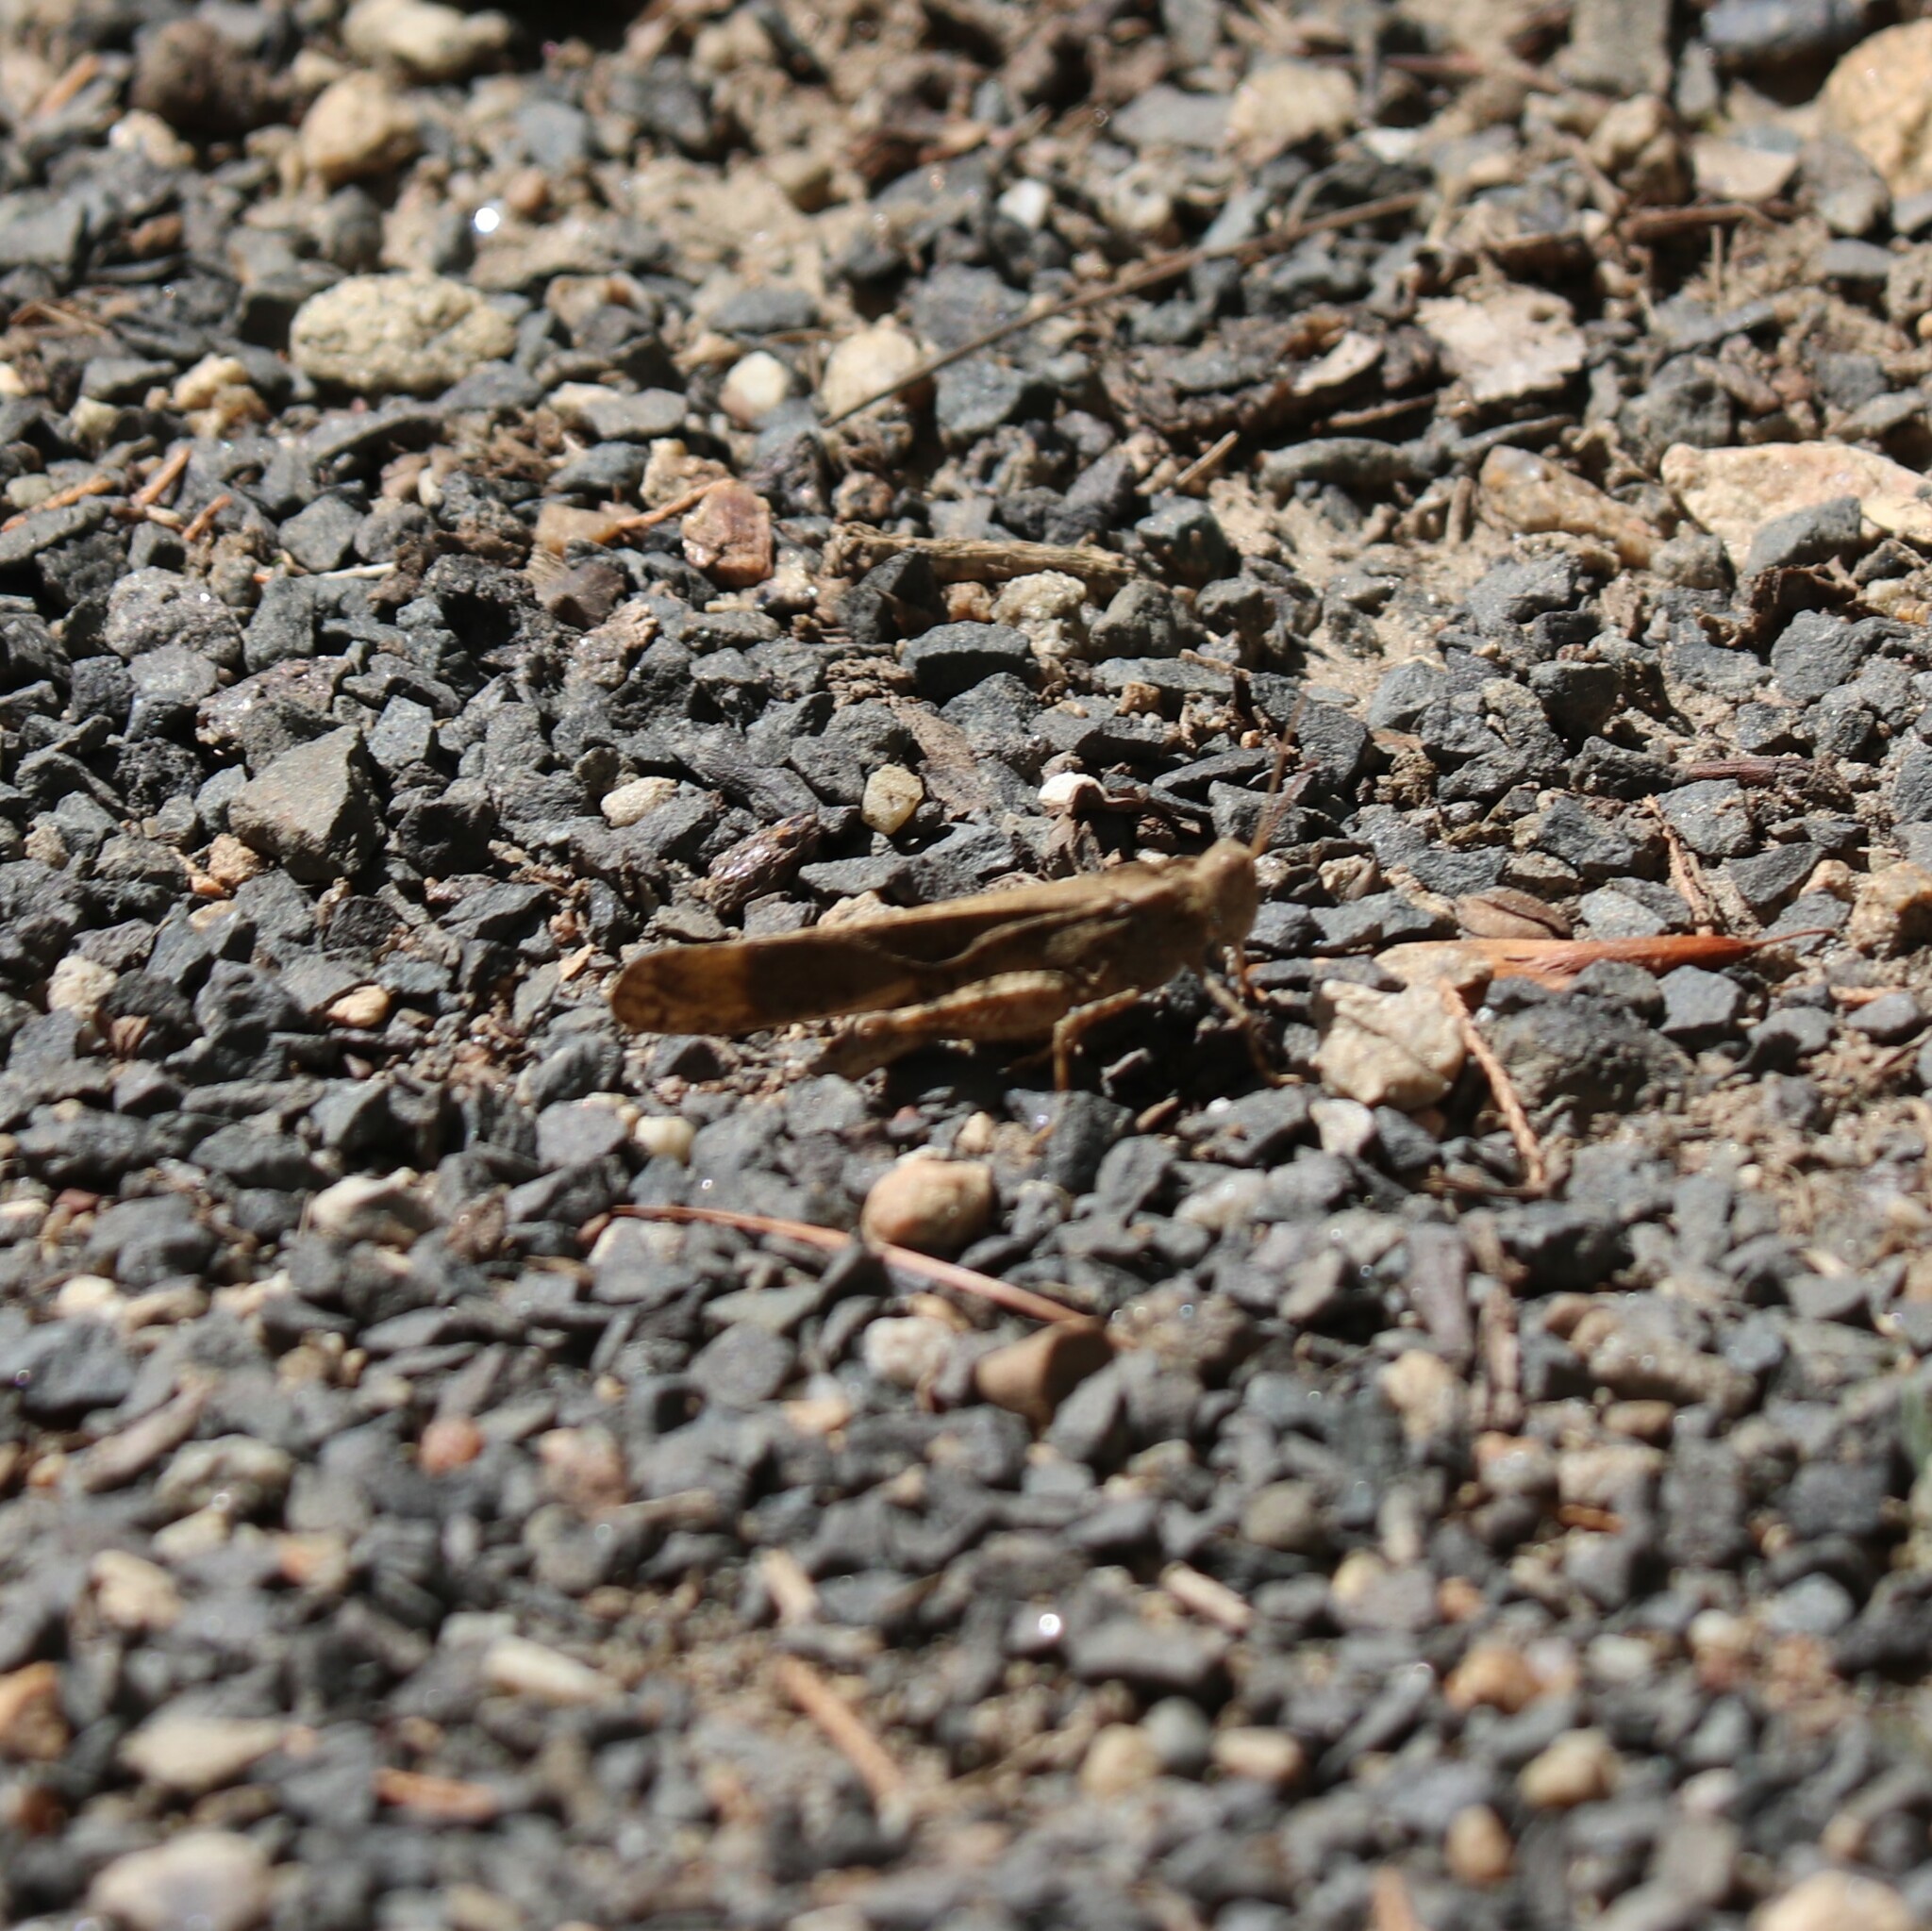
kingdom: Animalia
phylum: Arthropoda
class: Insecta
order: Orthoptera
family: Acrididae
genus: Dissosteira
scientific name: Dissosteira carolina
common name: Carolina grasshopper
